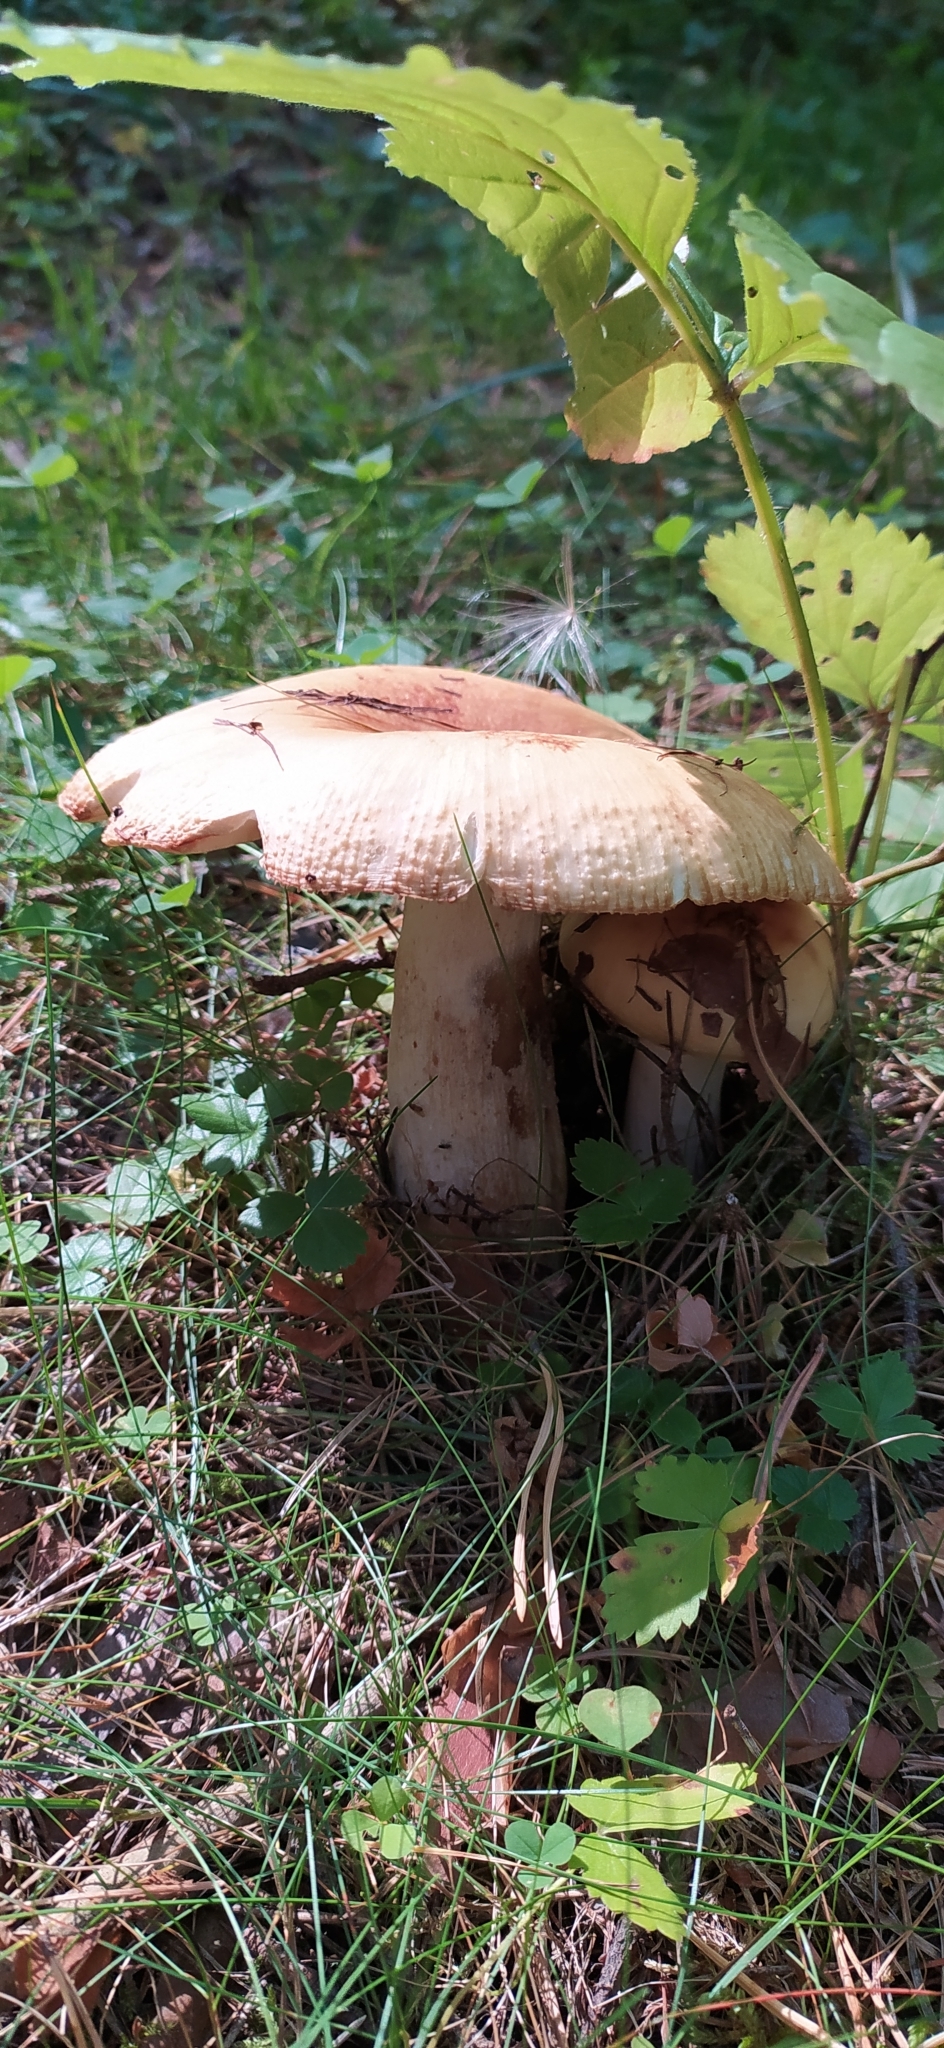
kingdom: Fungi
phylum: Basidiomycota
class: Agaricomycetes
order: Russulales
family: Russulaceae
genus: Russula
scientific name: Russula foetens
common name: Foetid russula
